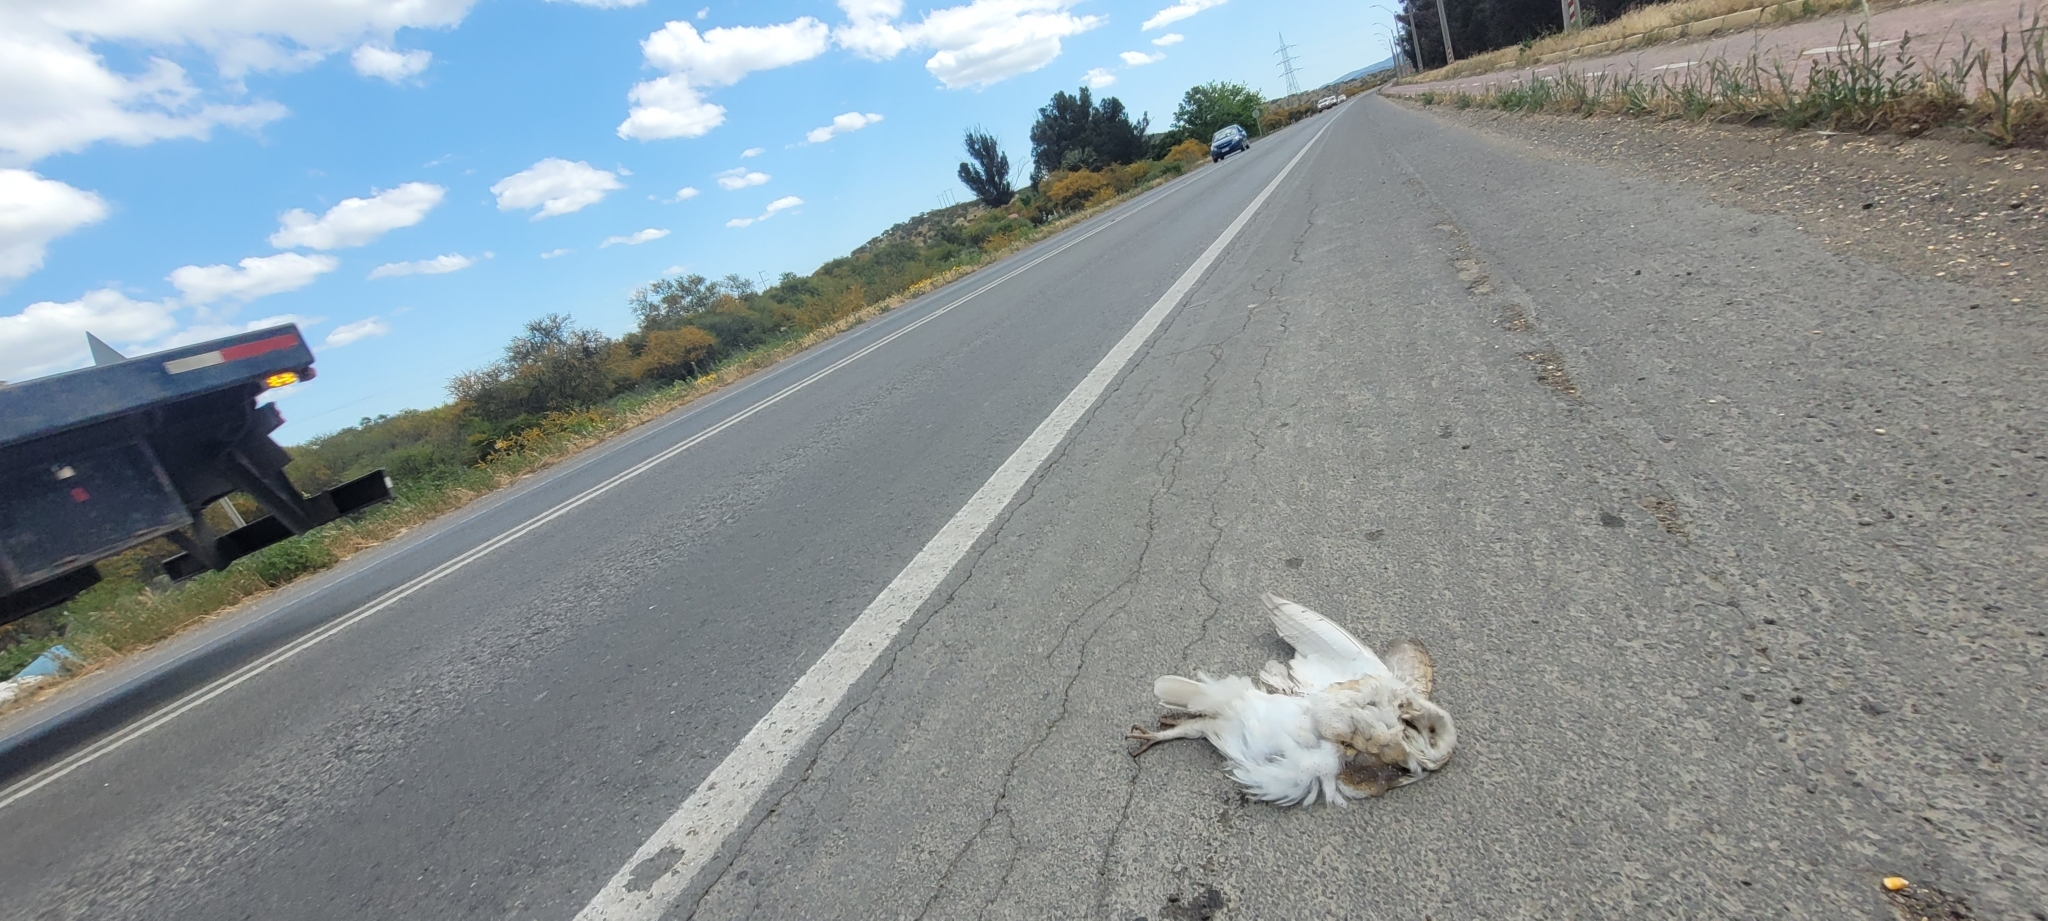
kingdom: Animalia
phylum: Chordata
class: Aves
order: Strigiformes
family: Tytonidae
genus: Tyto
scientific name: Tyto furcata
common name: American barn owl
